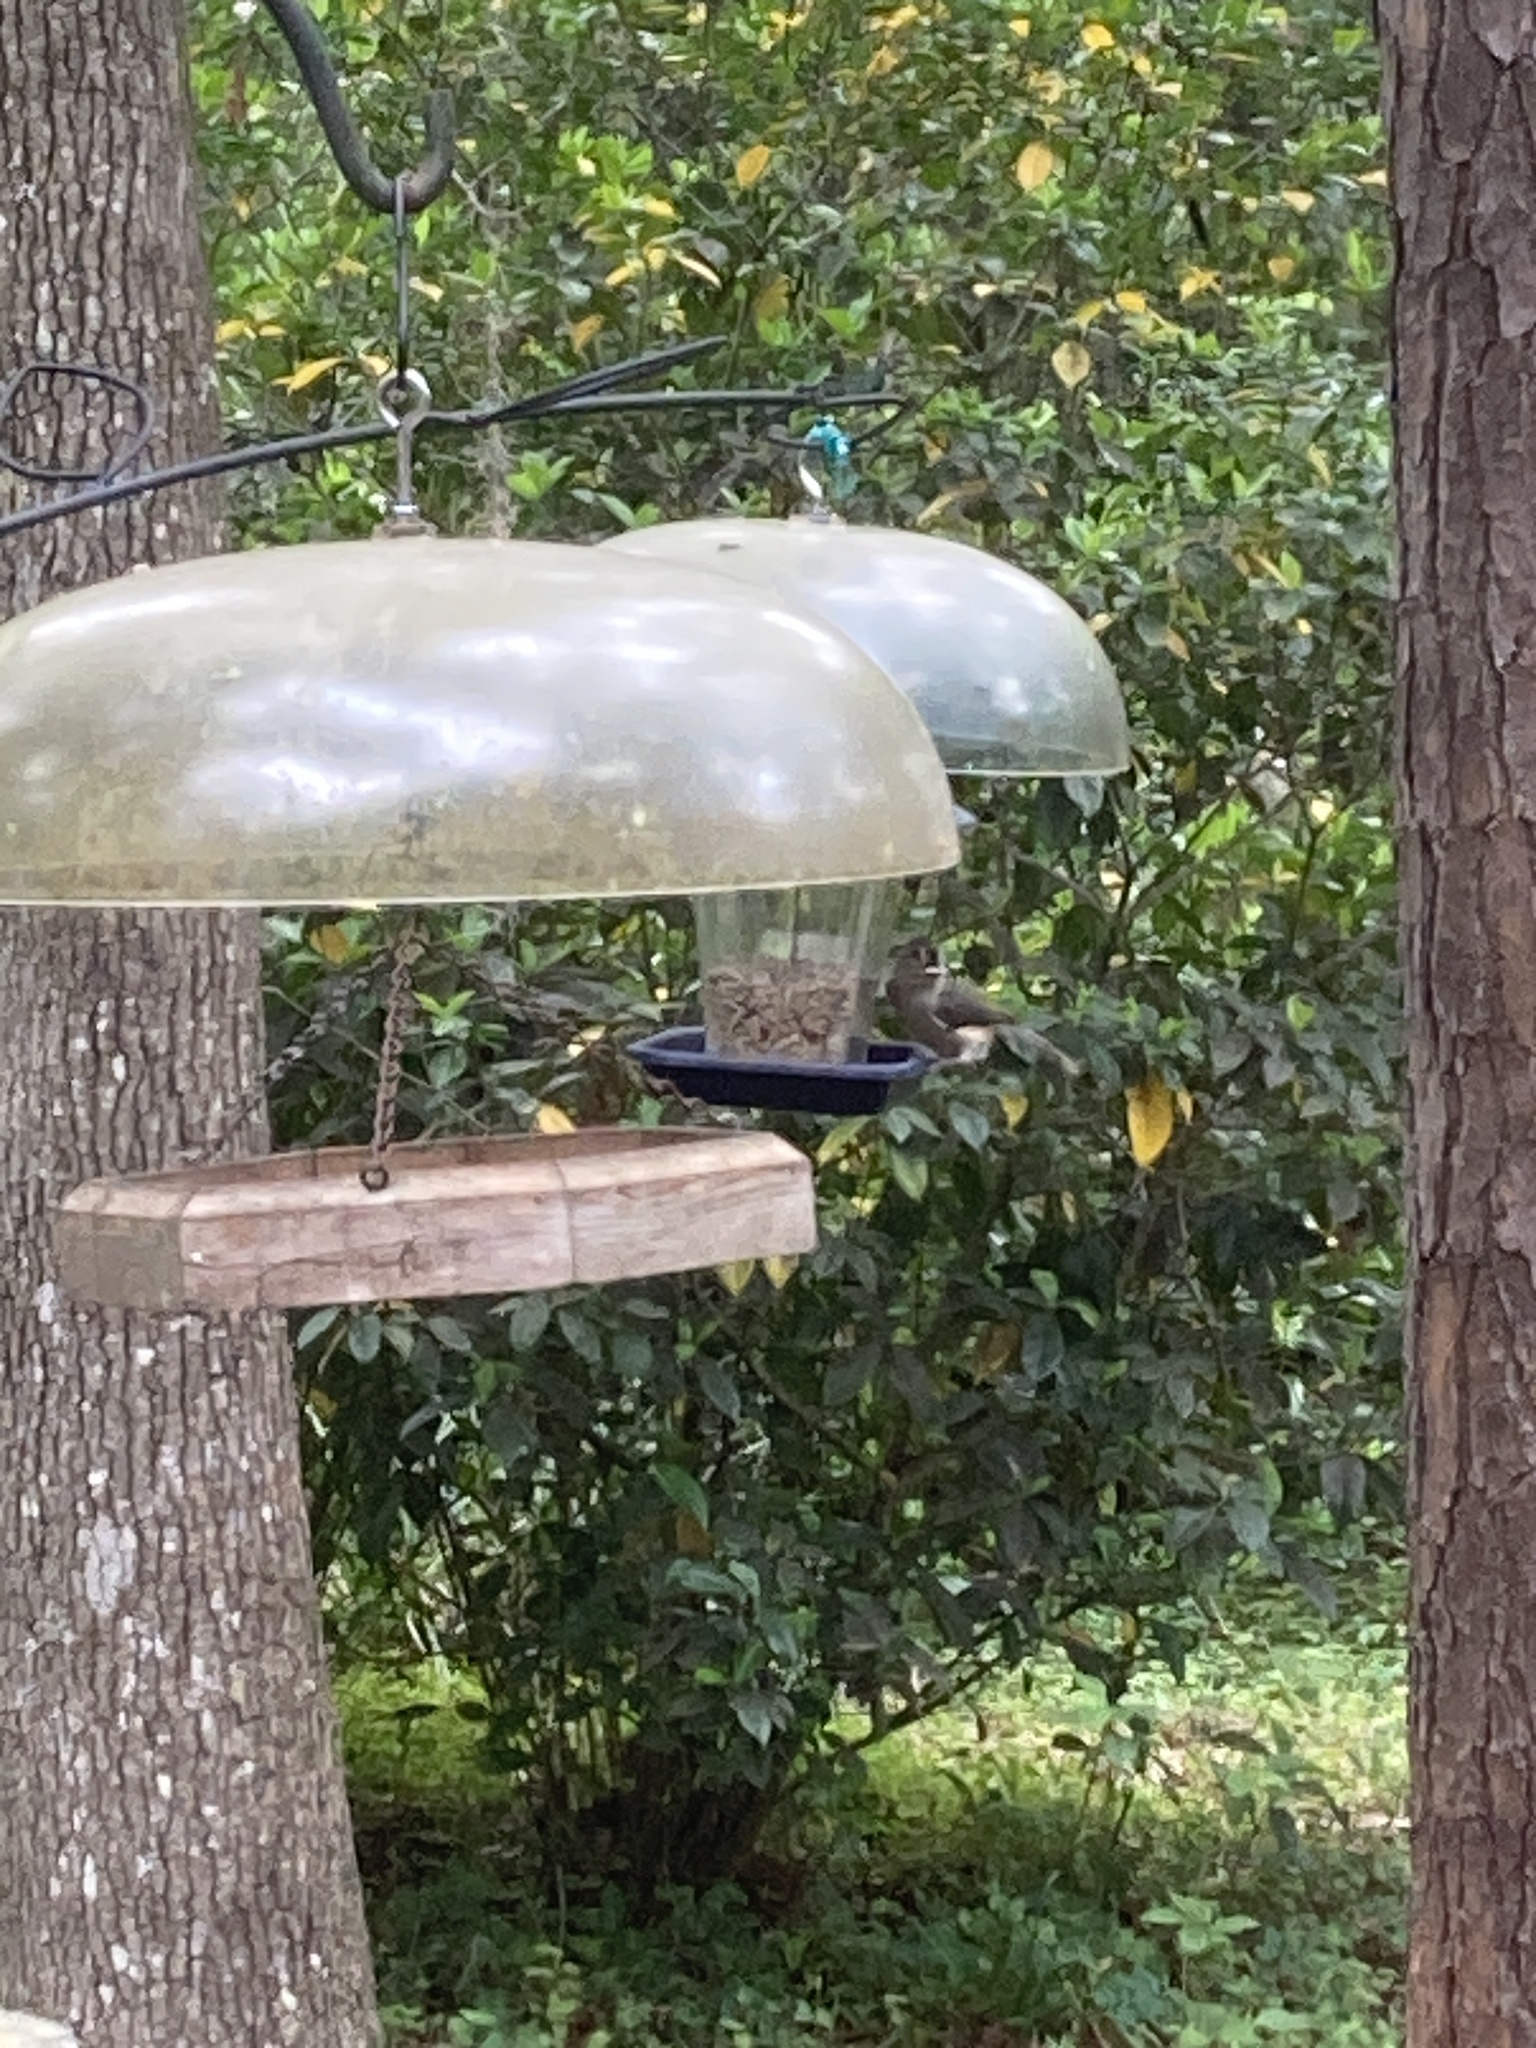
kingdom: Animalia
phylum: Chordata
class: Aves
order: Passeriformes
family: Paridae
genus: Baeolophus
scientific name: Baeolophus bicolor
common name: Tufted titmouse
